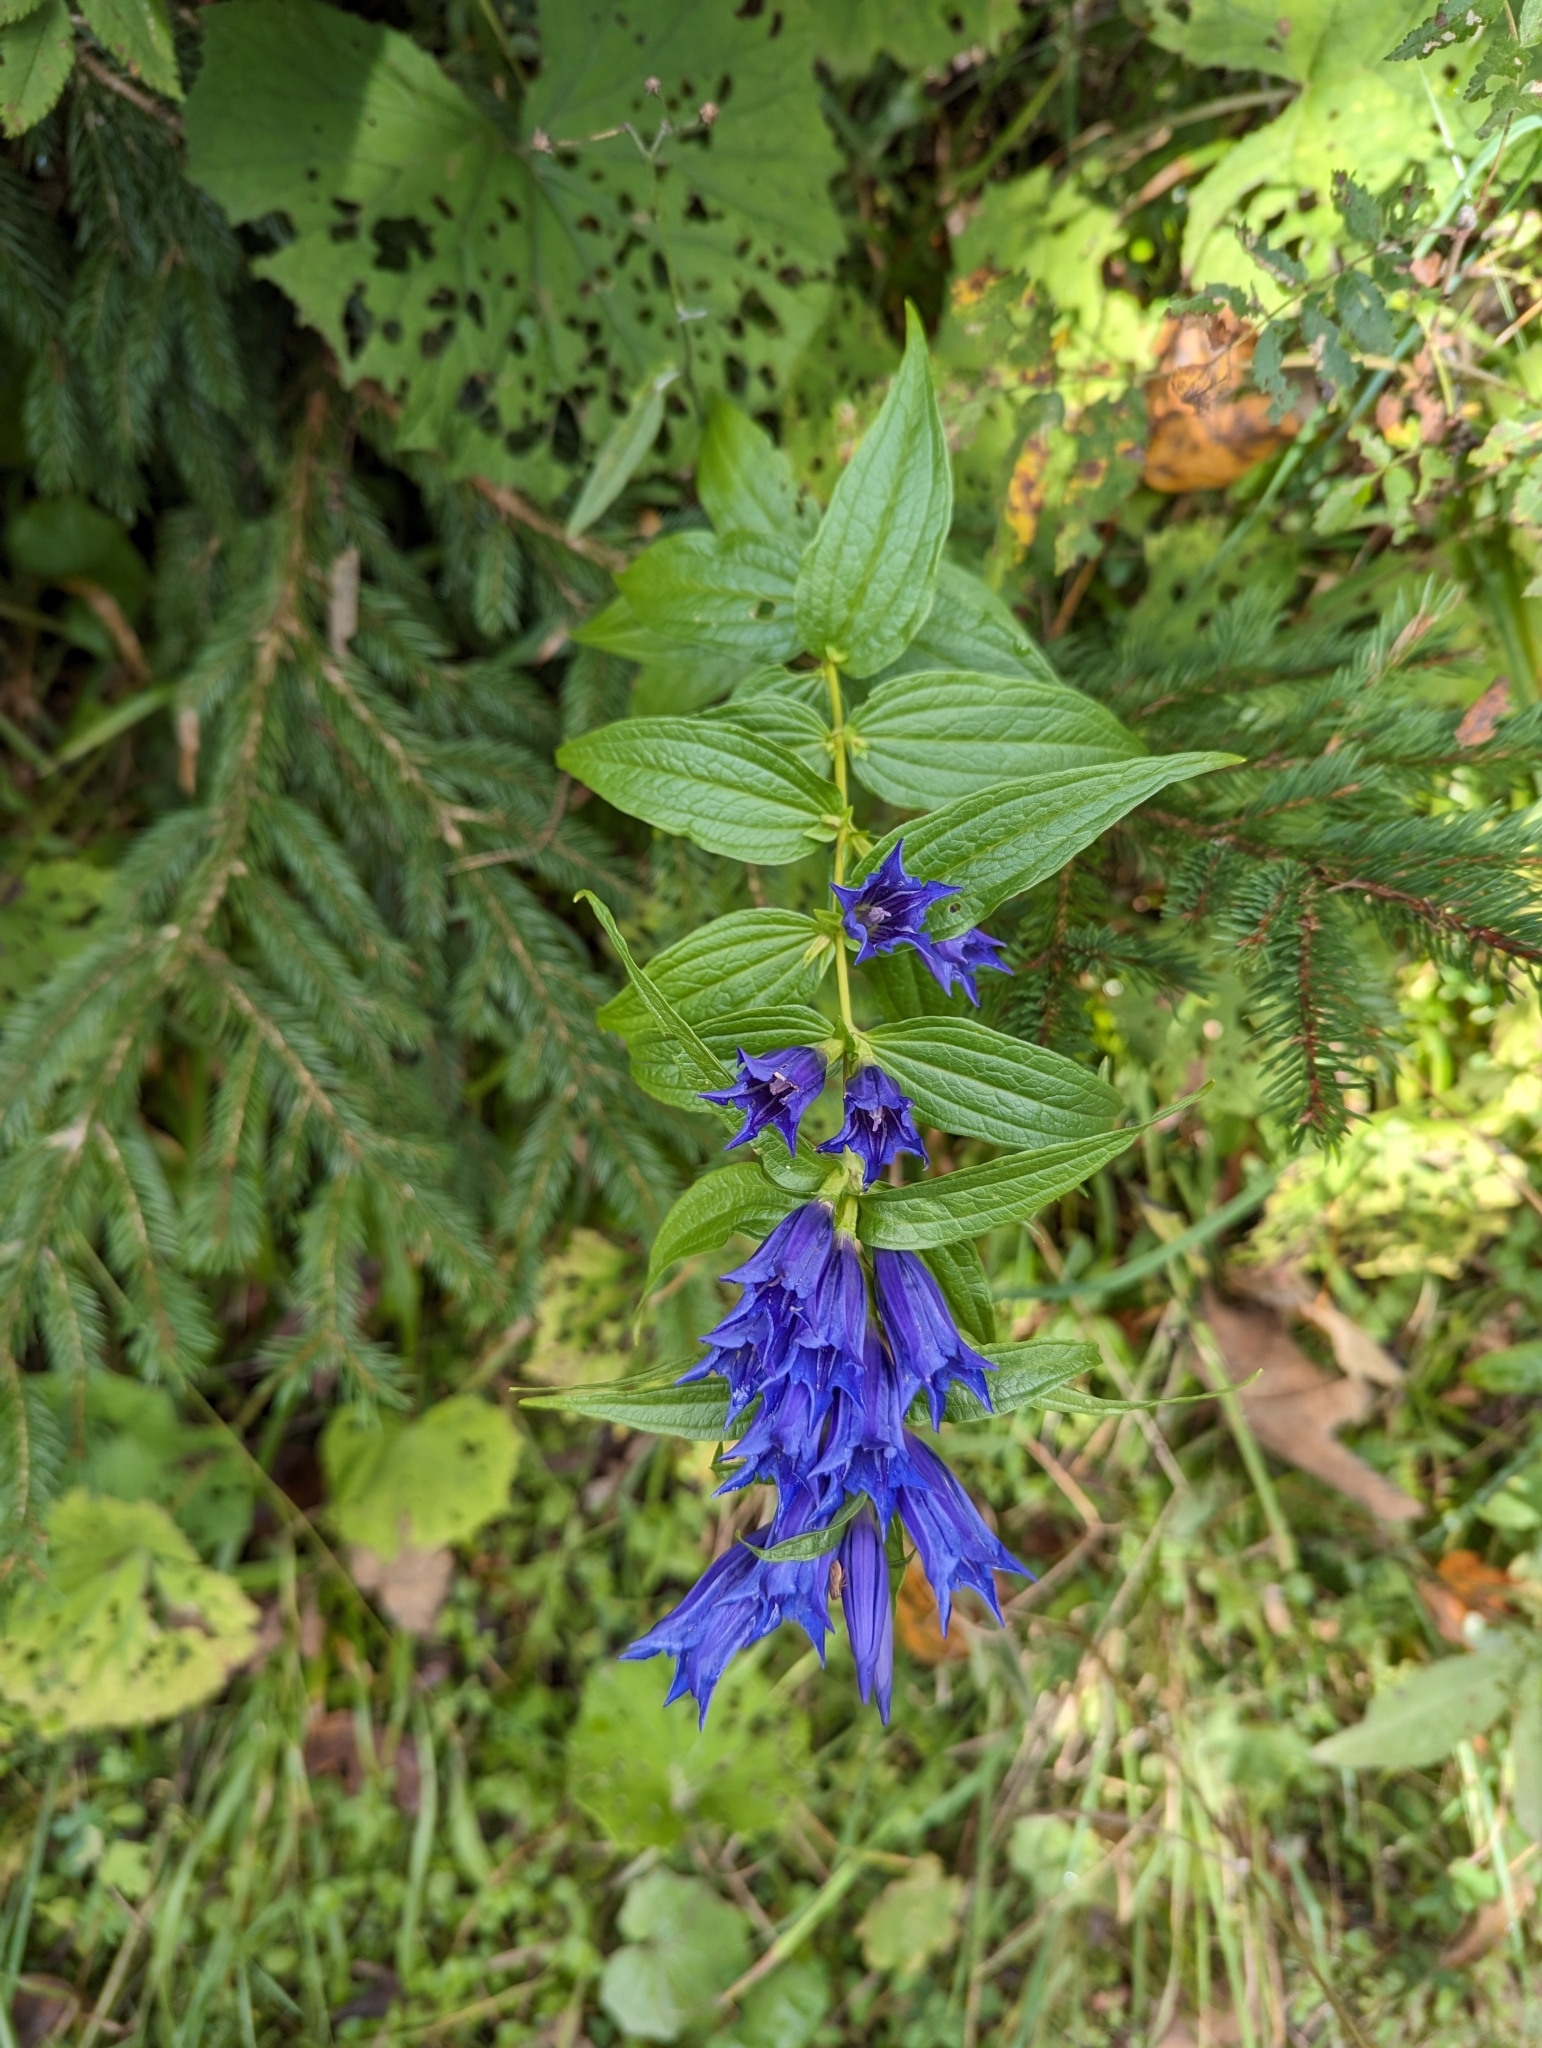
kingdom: Plantae
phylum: Tracheophyta
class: Magnoliopsida
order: Gentianales
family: Gentianaceae
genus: Gentiana
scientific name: Gentiana asclepiadea
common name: Willow gentian
